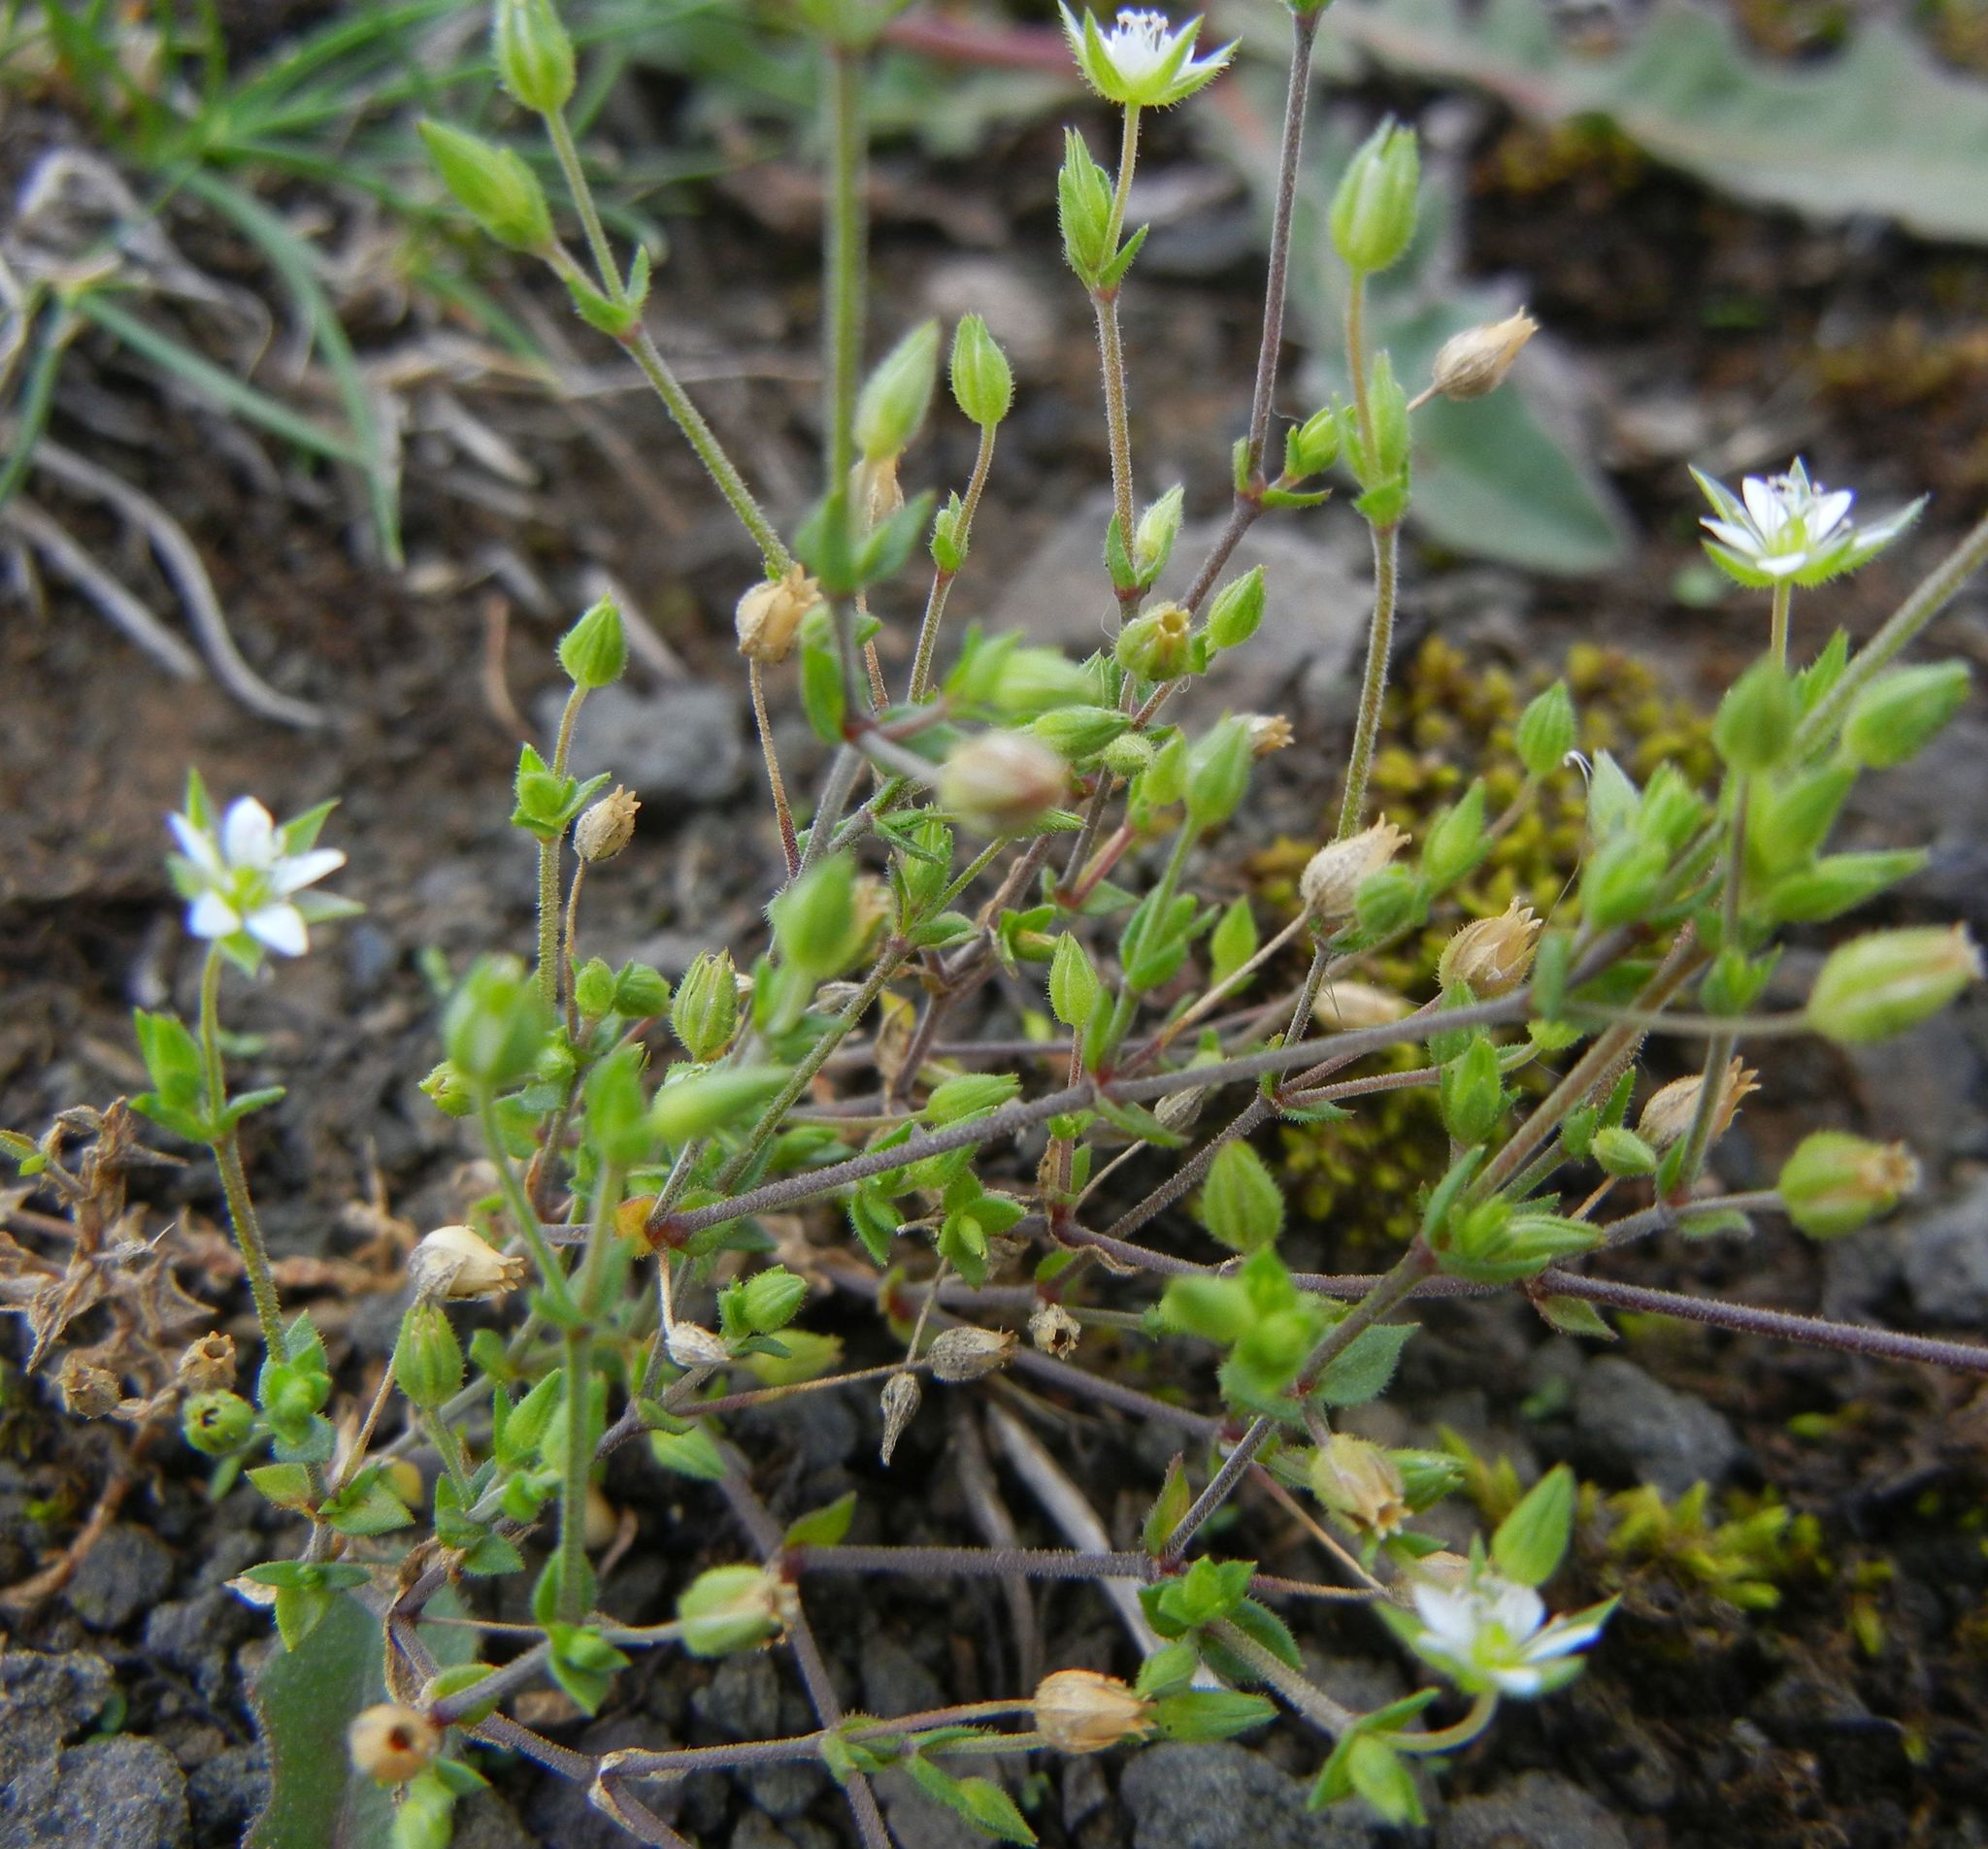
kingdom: Plantae
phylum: Tracheophyta
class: Magnoliopsida
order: Caryophyllales
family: Caryophyllaceae
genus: Arenaria
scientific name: Arenaria serpyllifolia
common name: Thyme-leaved sandwort
